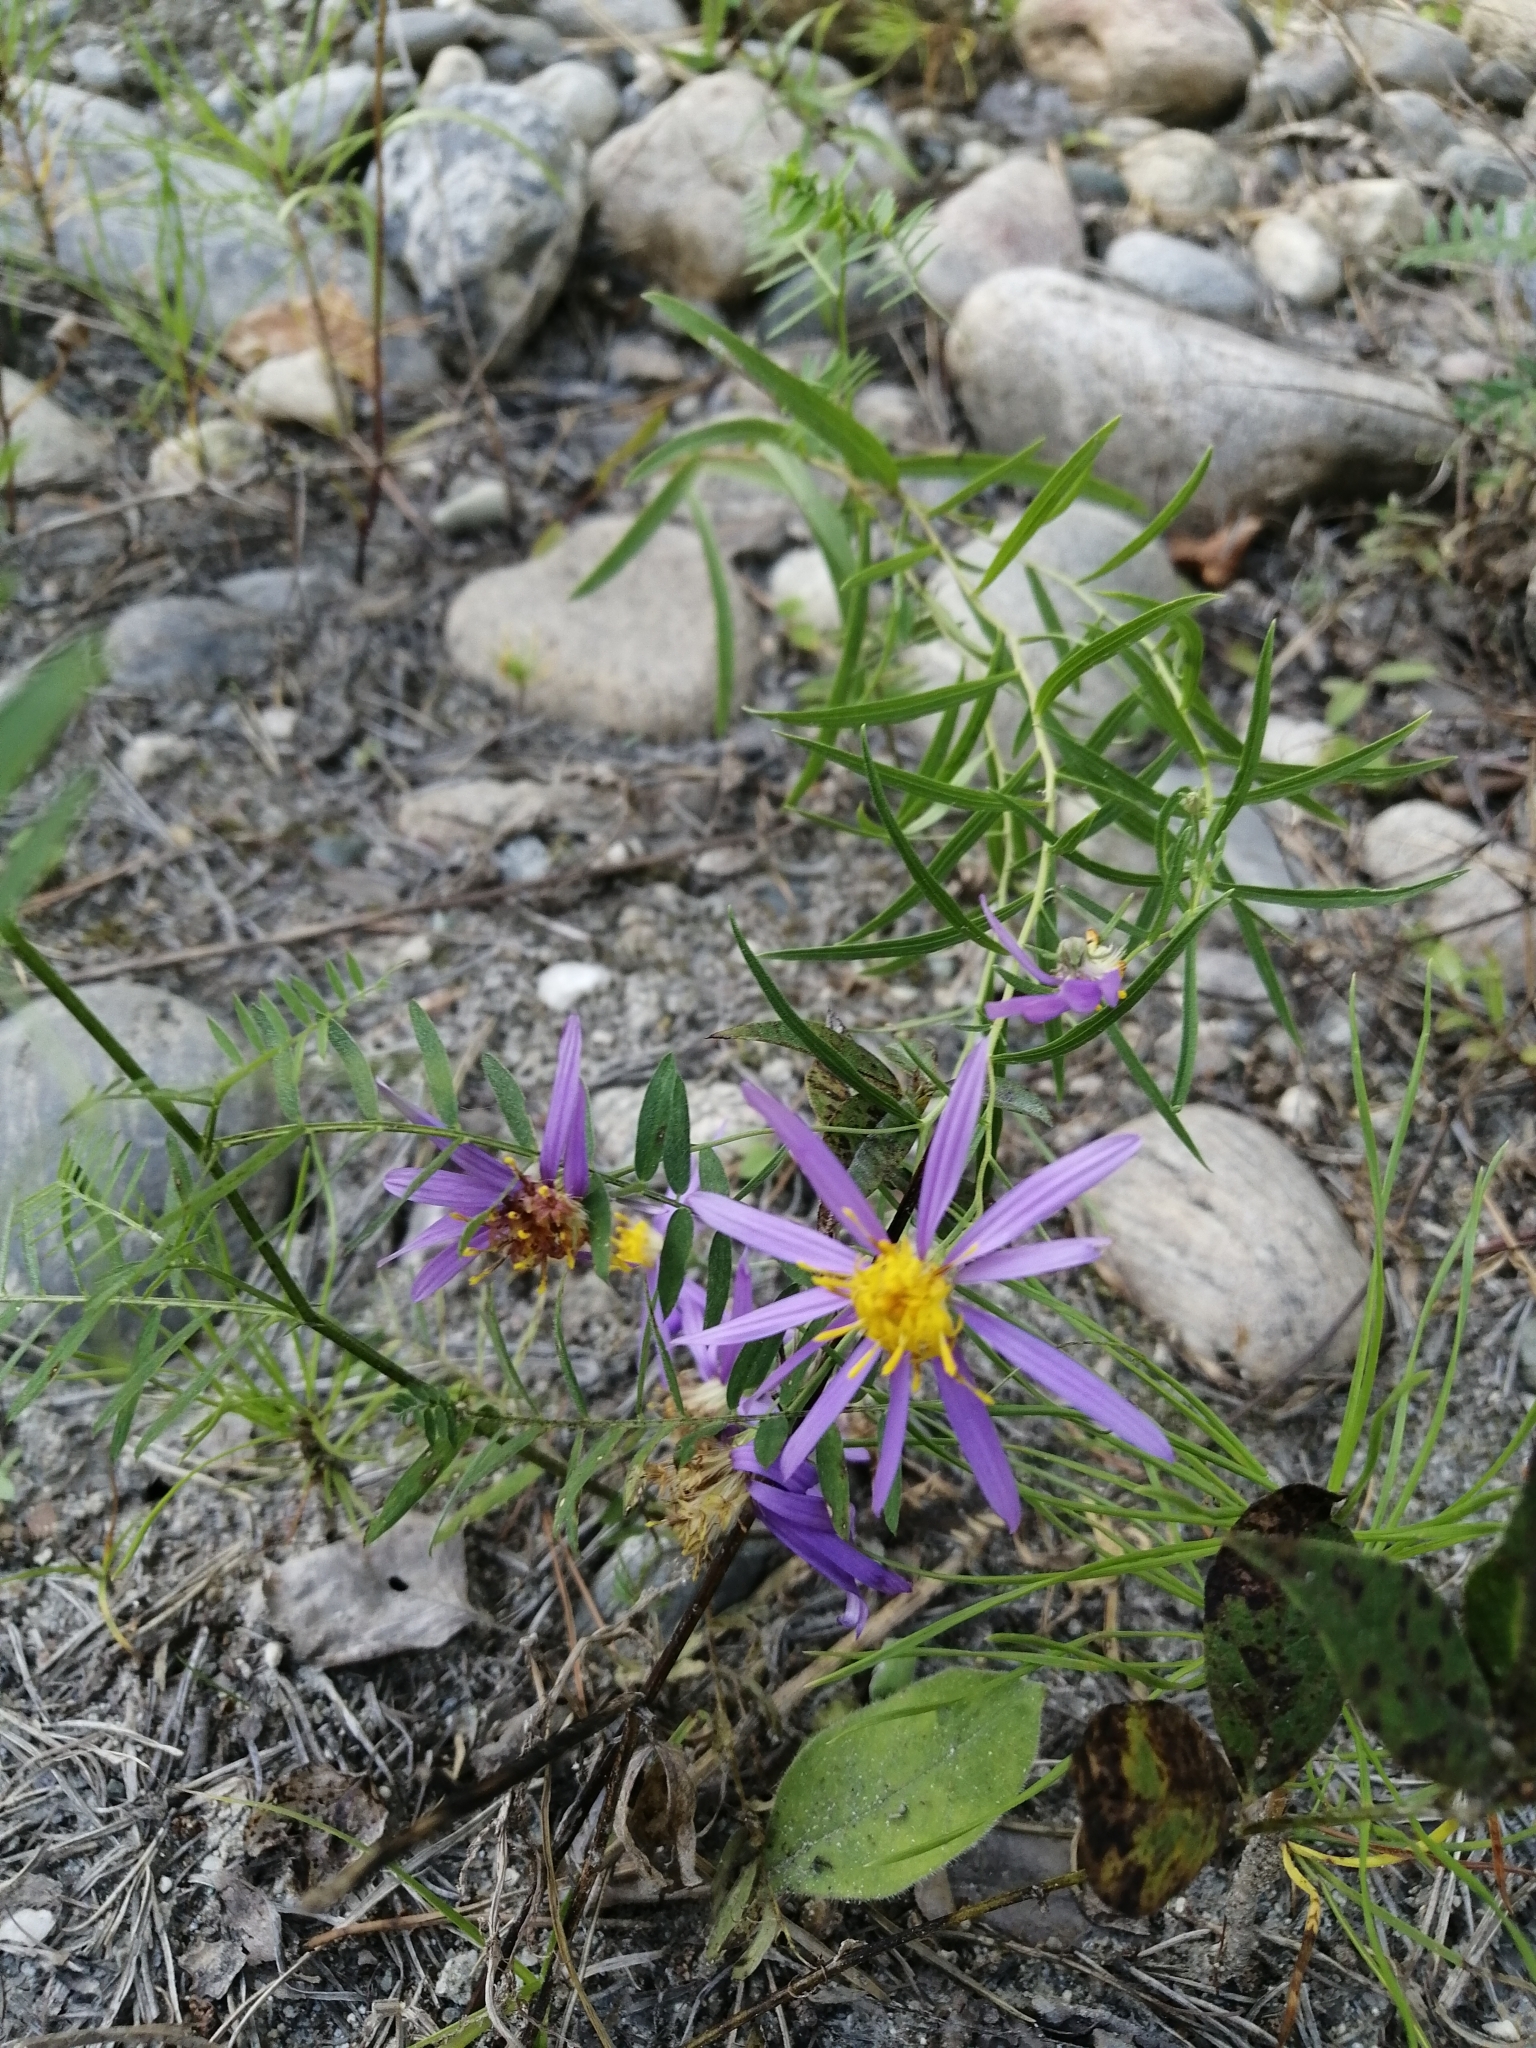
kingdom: Plantae
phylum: Tracheophyta
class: Magnoliopsida
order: Asterales
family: Asteraceae
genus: Galatella
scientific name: Galatella dahurica
